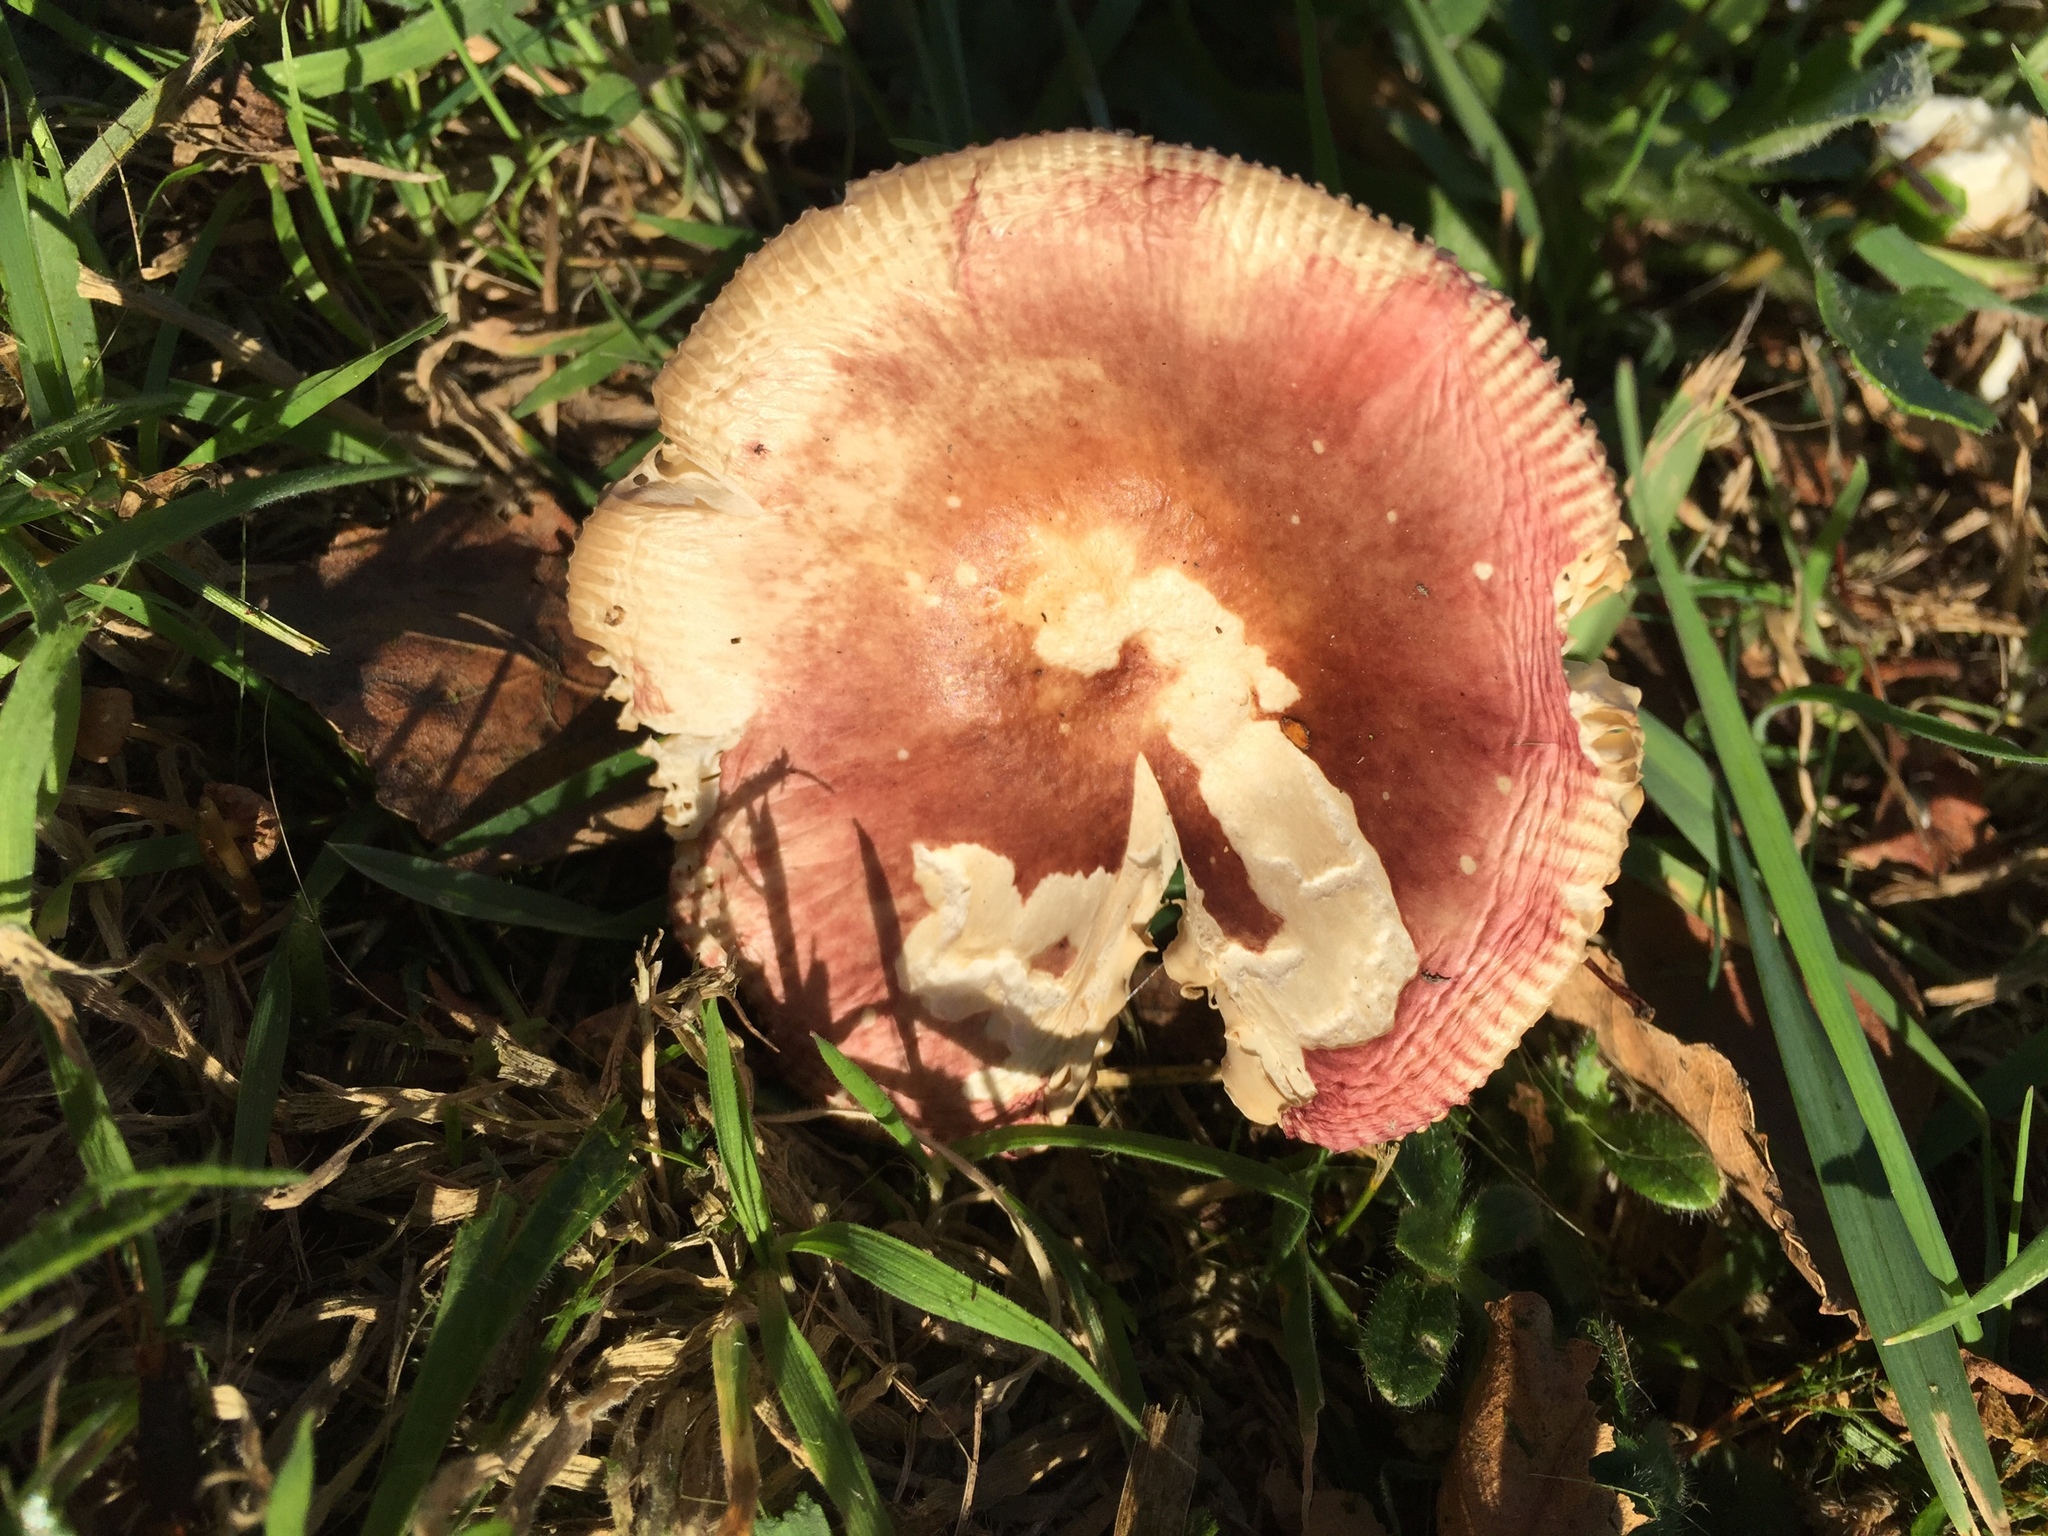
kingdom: Fungi
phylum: Basidiomycota
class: Agaricomycetes
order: Russulales
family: Russulaceae
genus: Russula
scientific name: Russula nitida
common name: Purple swamp brittlegill
